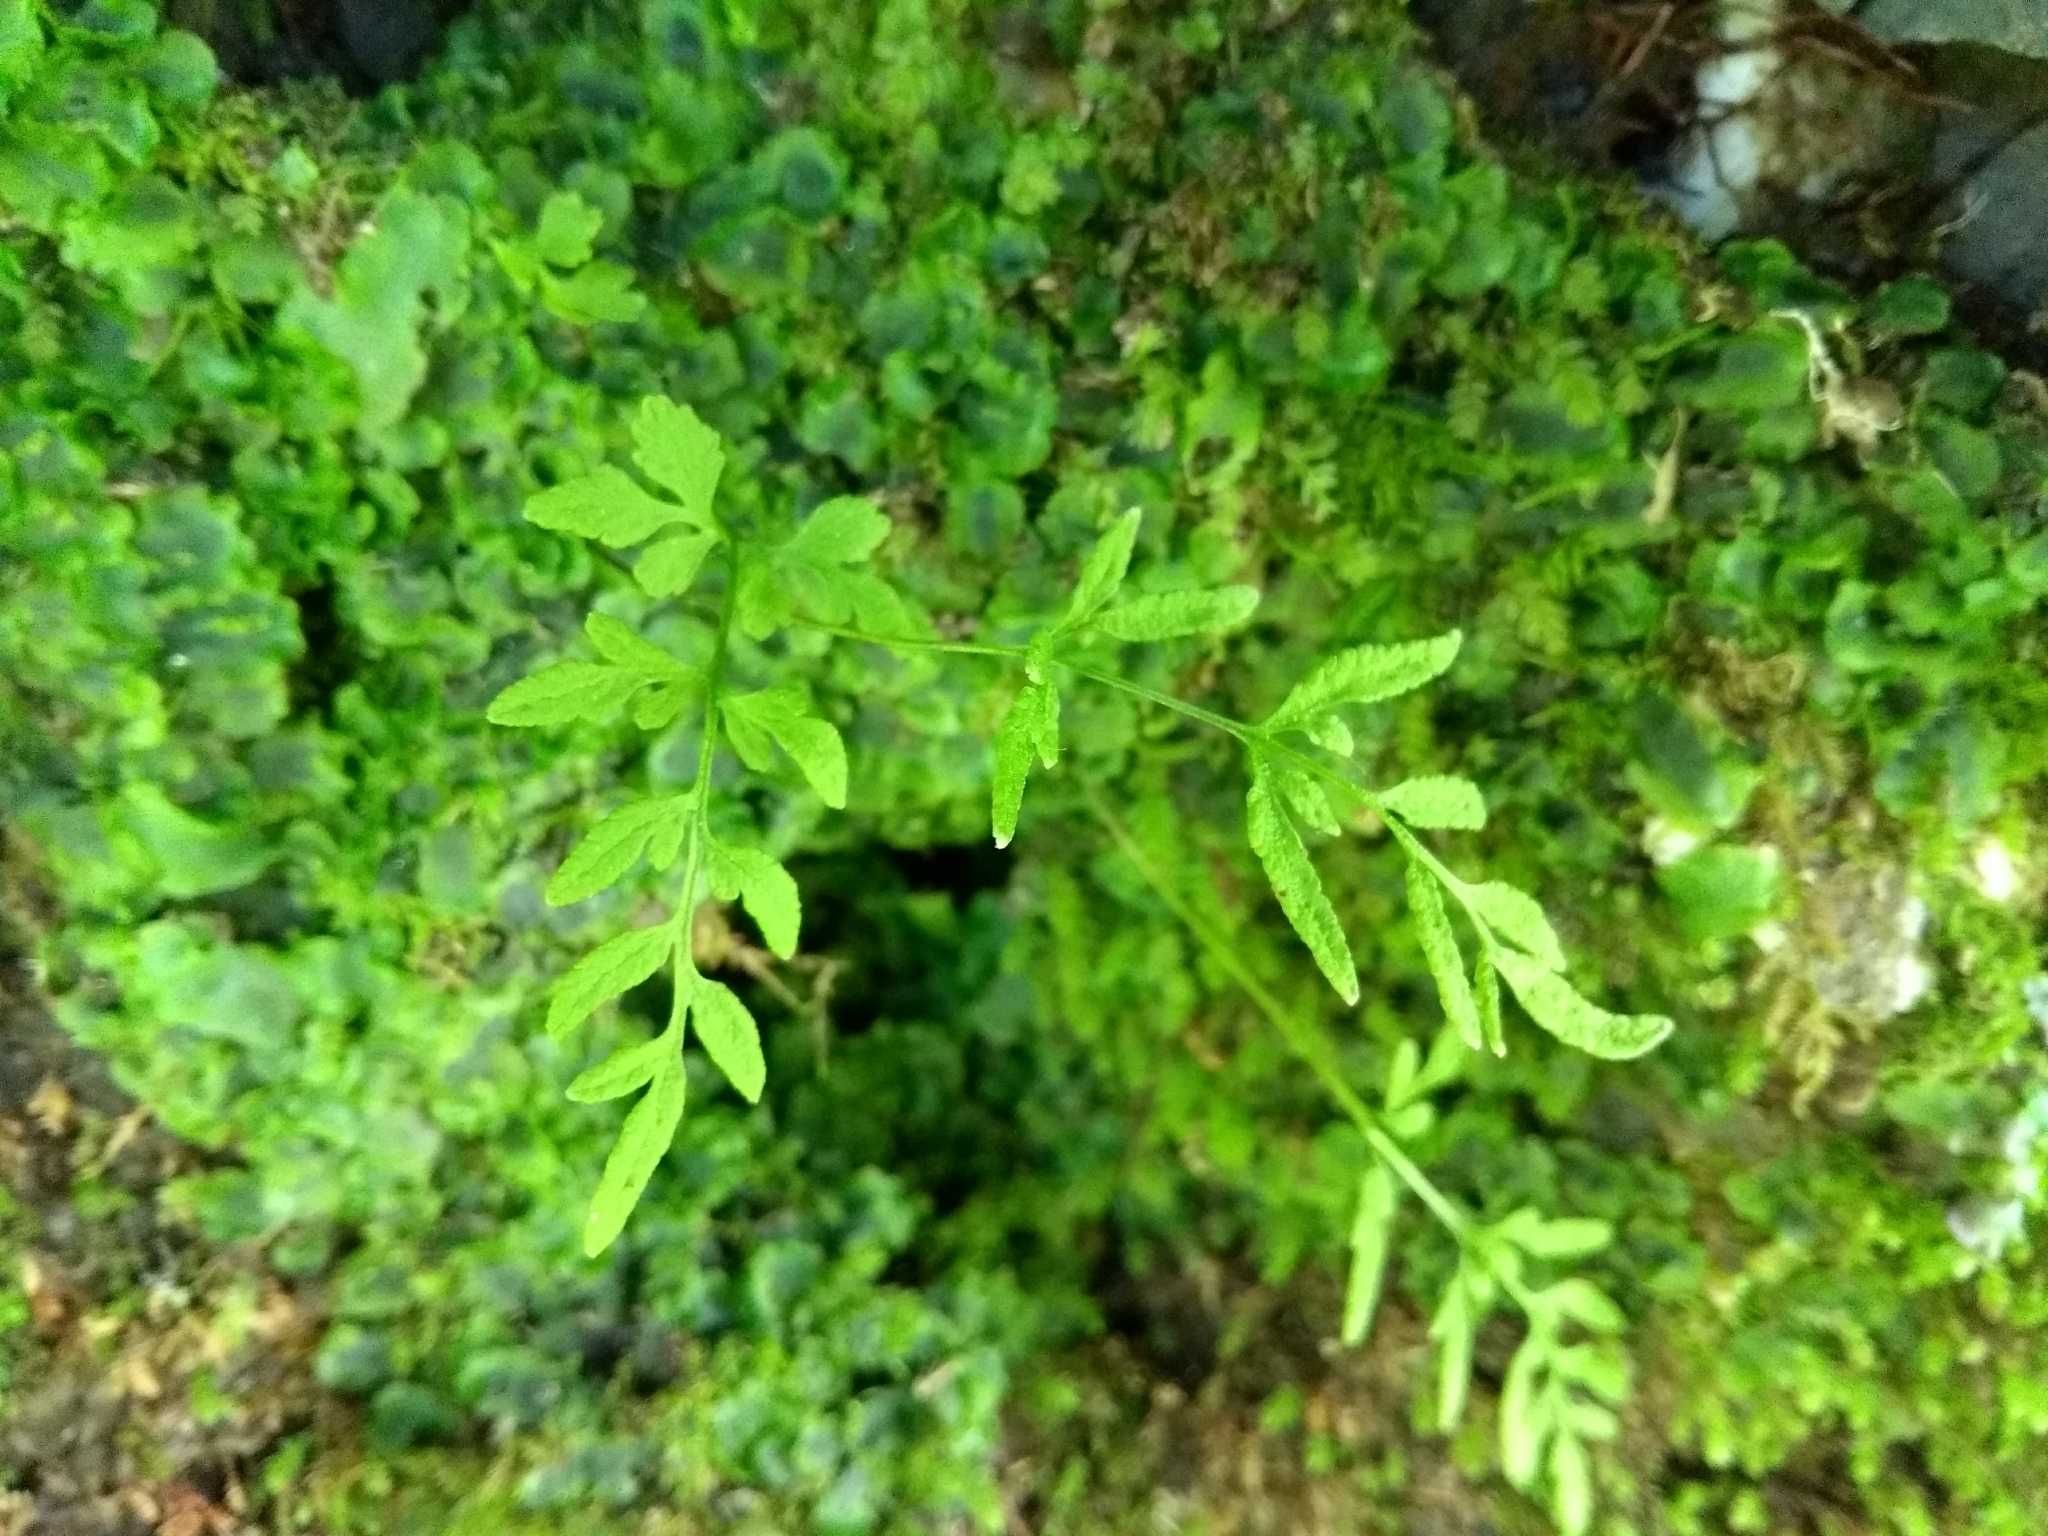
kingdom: Plantae
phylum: Tracheophyta
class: Polypodiopsida
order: Polypodiales
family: Pteridaceae
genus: Cryptogramma
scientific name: Cryptogramma stelleri
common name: Cliff-brake
